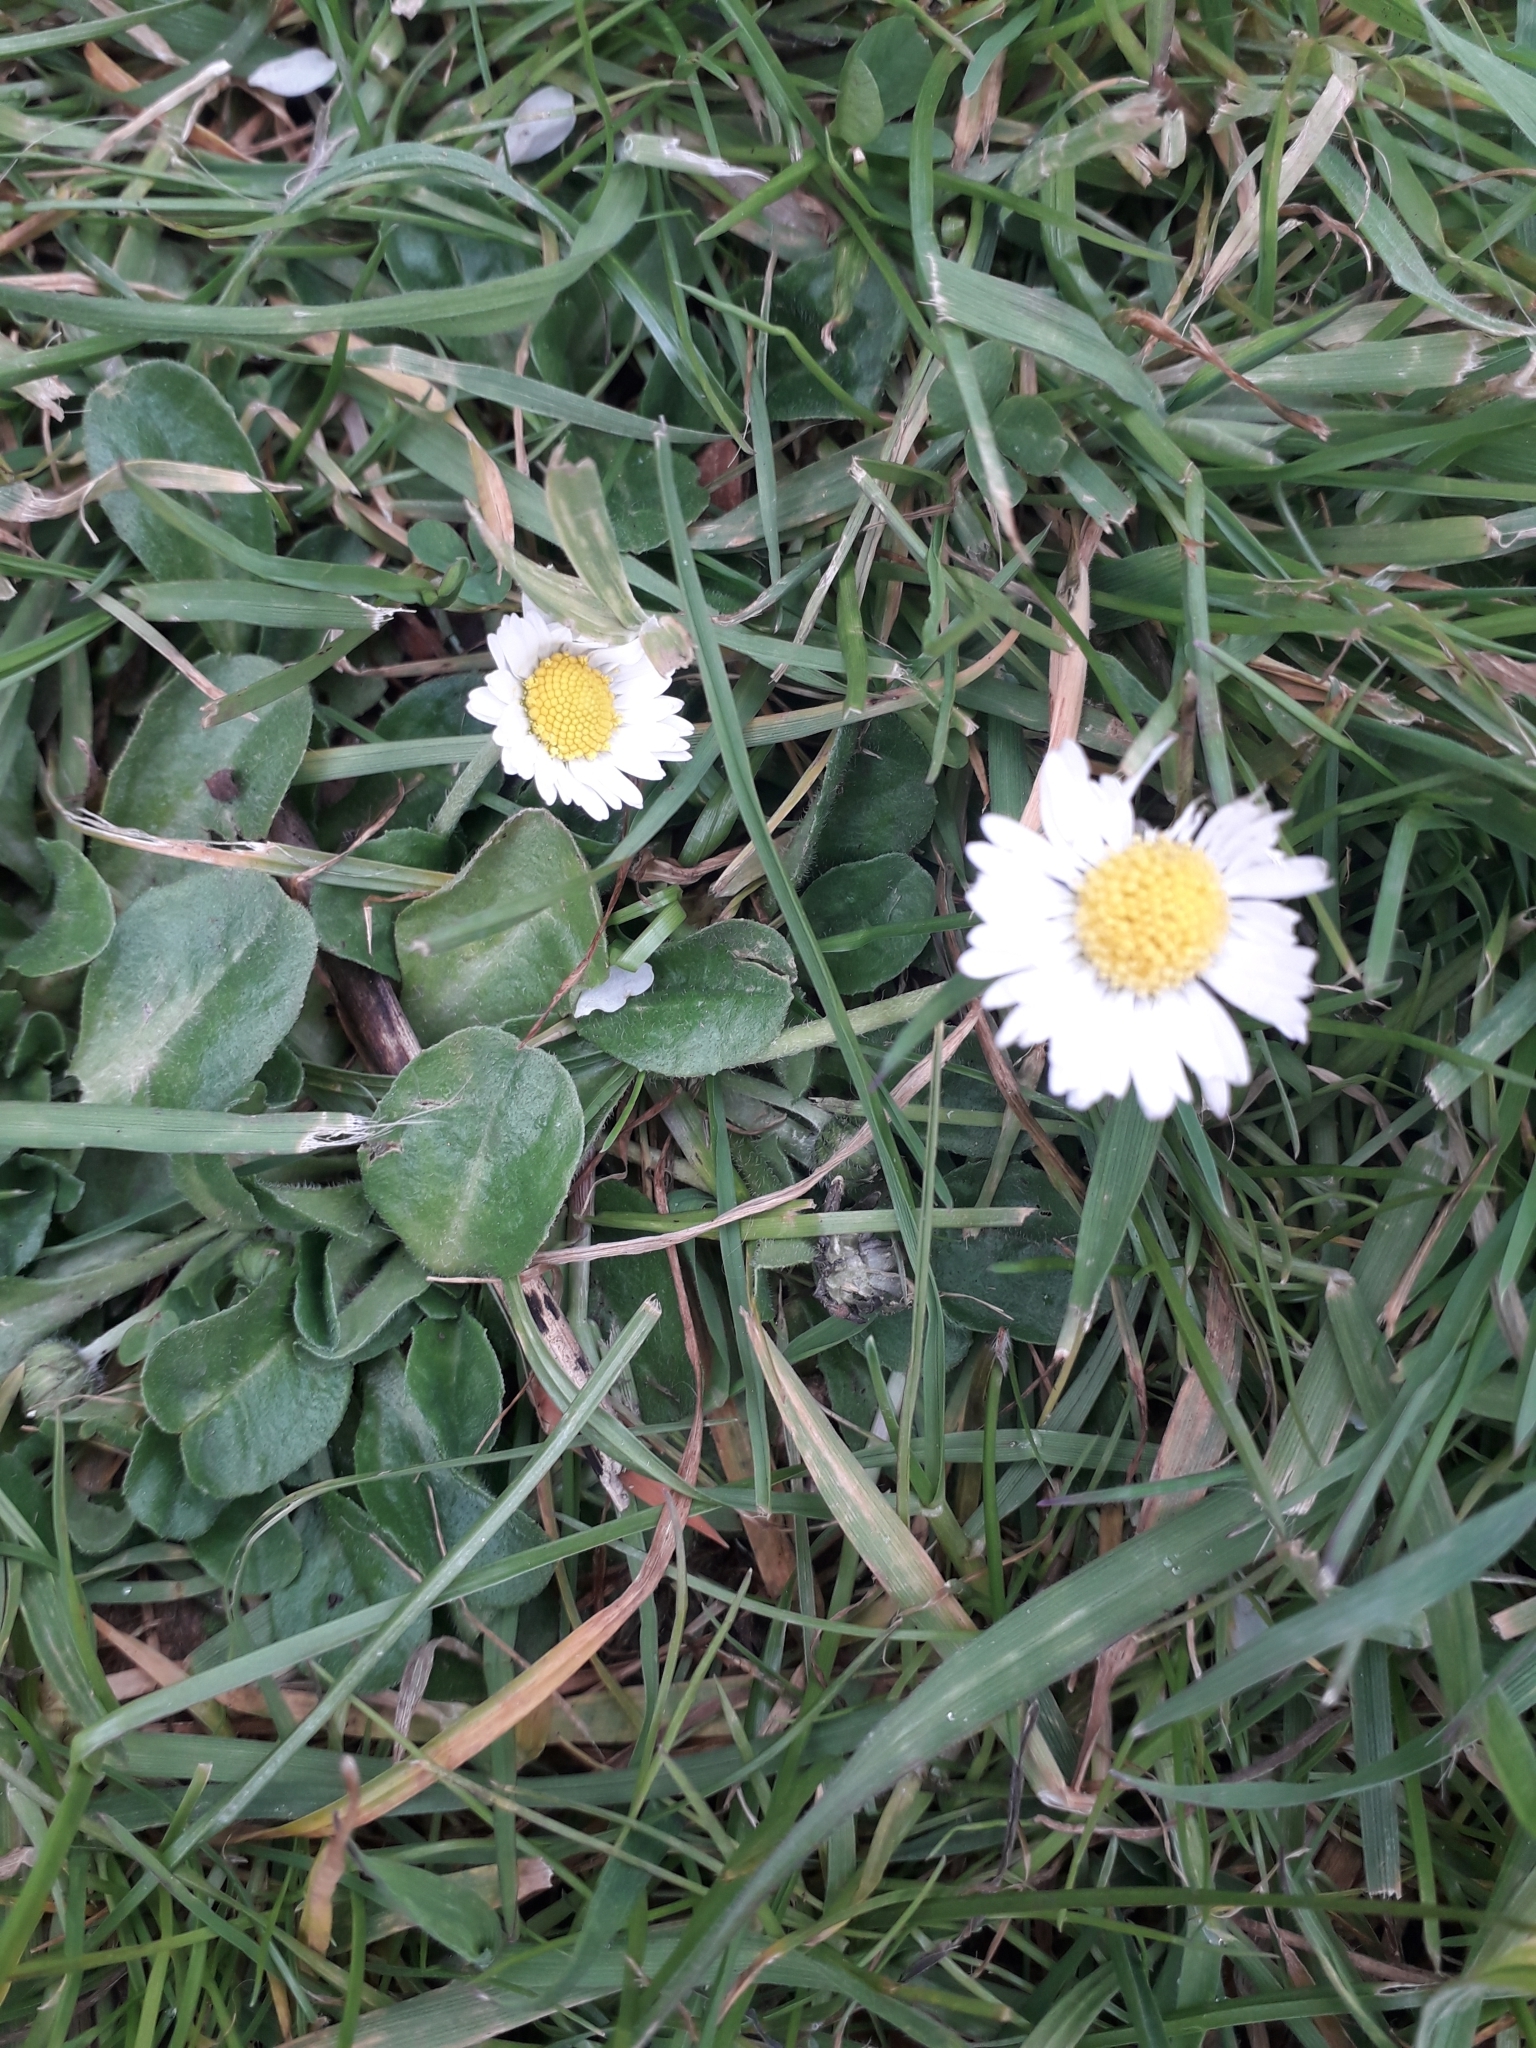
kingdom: Plantae
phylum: Tracheophyta
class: Magnoliopsida
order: Asterales
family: Asteraceae
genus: Bellis
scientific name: Bellis perennis
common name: Lawndaisy
